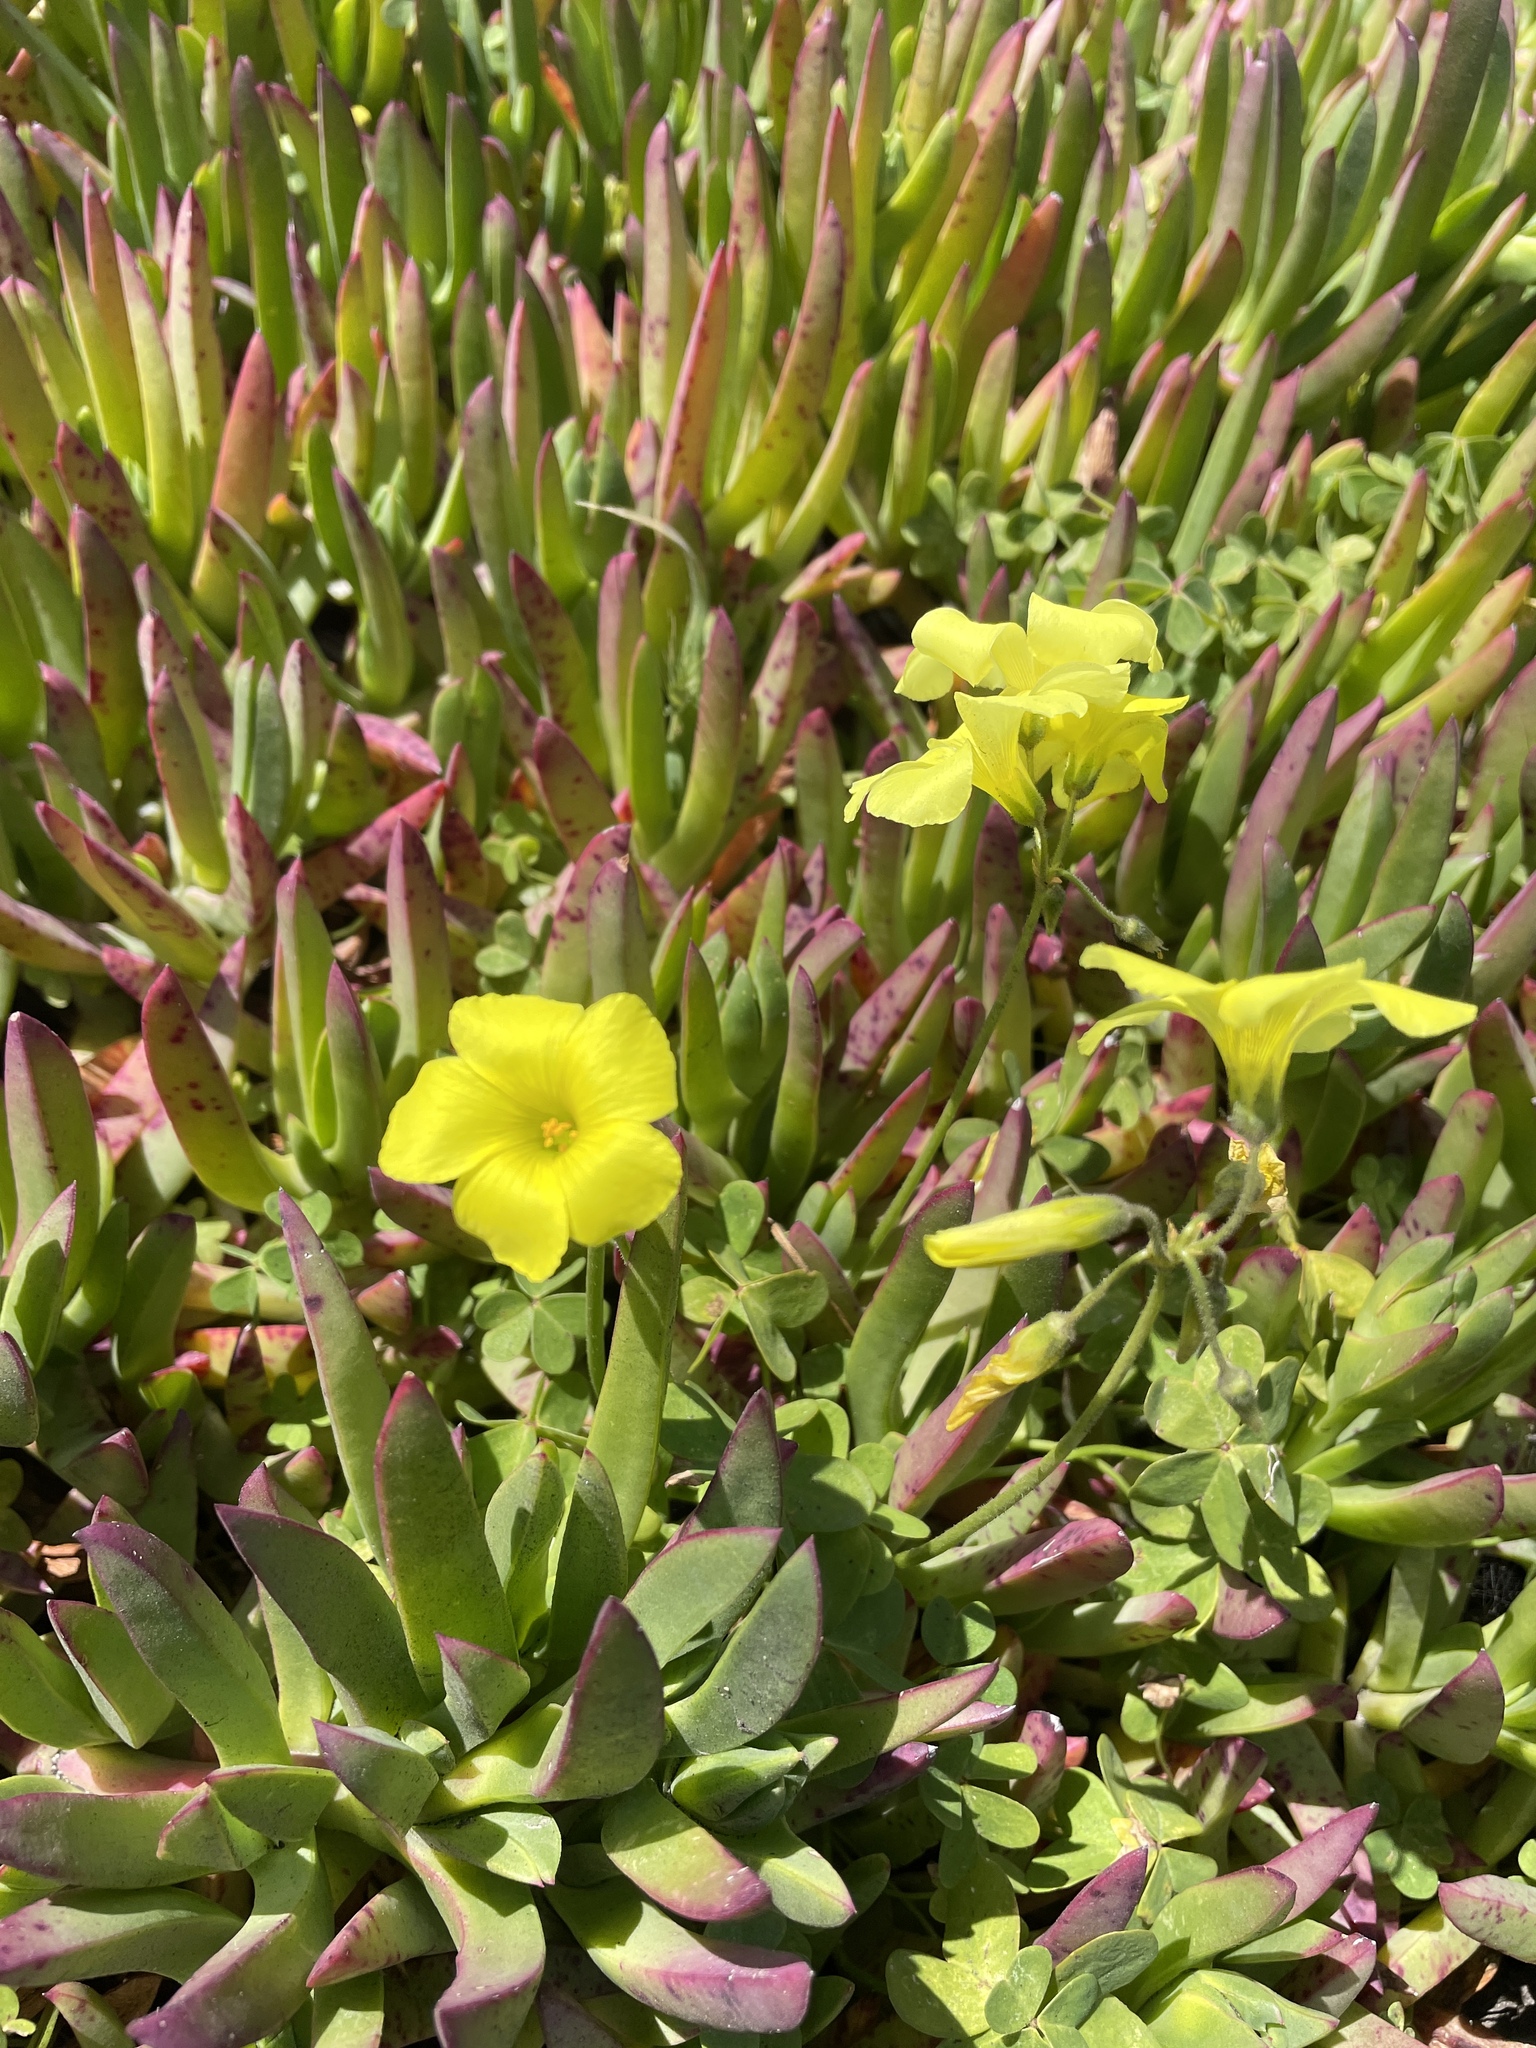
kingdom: Plantae
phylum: Tracheophyta
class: Magnoliopsida
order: Oxalidales
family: Oxalidaceae
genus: Oxalis
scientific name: Oxalis pes-caprae
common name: Bermuda-buttercup
